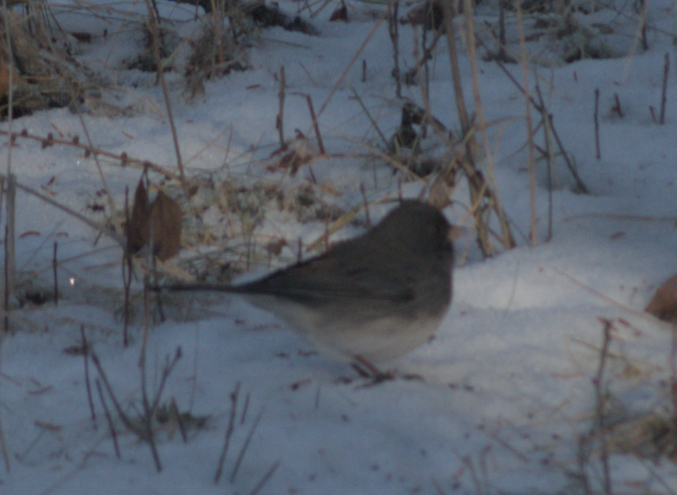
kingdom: Animalia
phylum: Chordata
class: Aves
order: Passeriformes
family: Passerellidae
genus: Junco
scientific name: Junco hyemalis
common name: Dark-eyed junco
